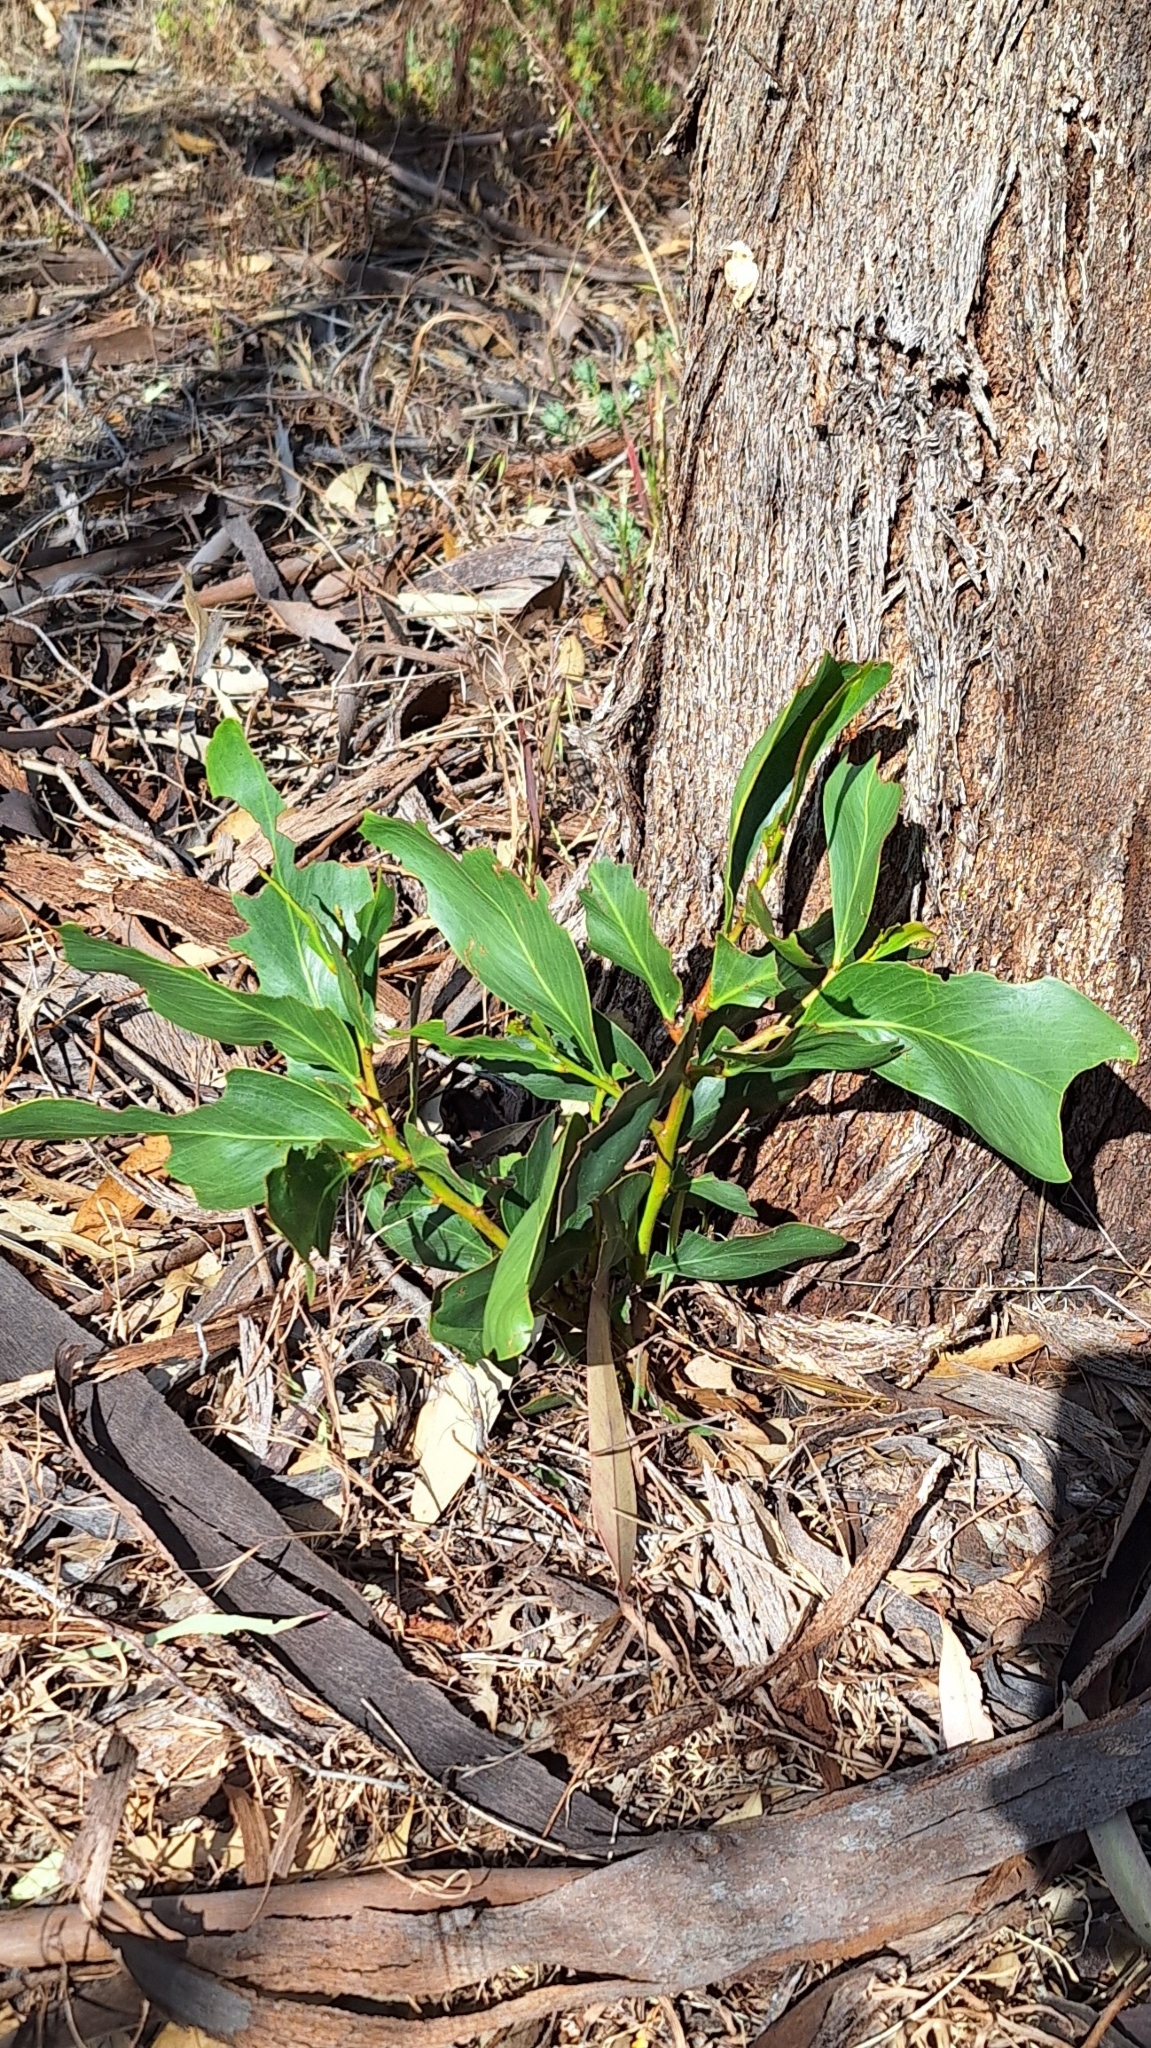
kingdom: Plantae
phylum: Tracheophyta
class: Magnoliopsida
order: Fabales
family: Fabaceae
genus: Acacia
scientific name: Acacia pycnantha
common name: Golden wattle
